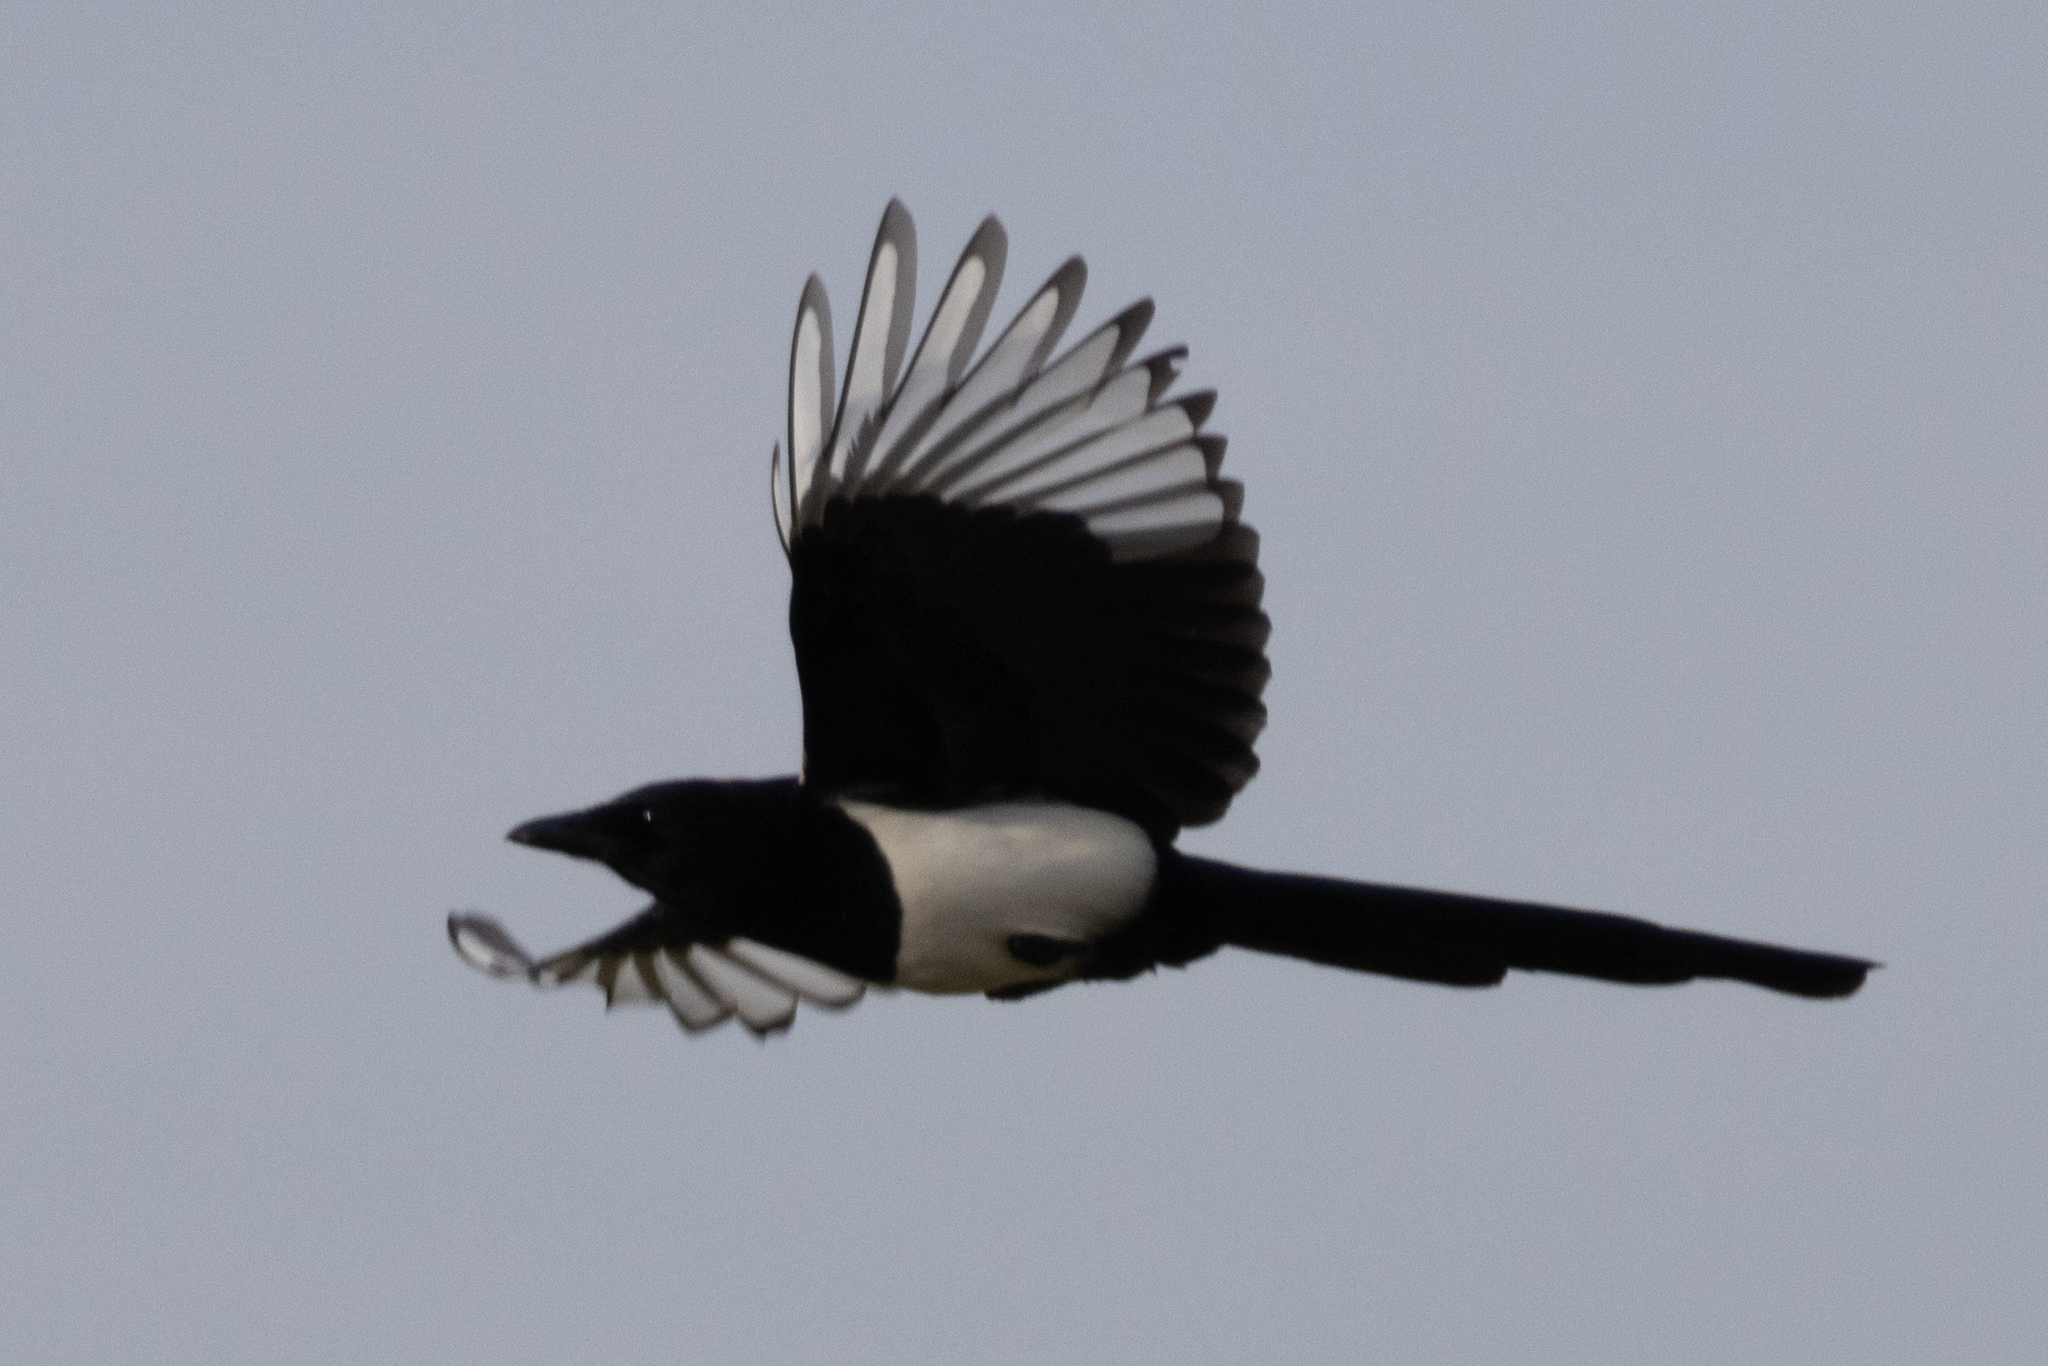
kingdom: Animalia
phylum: Chordata
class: Aves
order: Passeriformes
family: Corvidae
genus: Pica
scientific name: Pica pica
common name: Eurasian magpie
